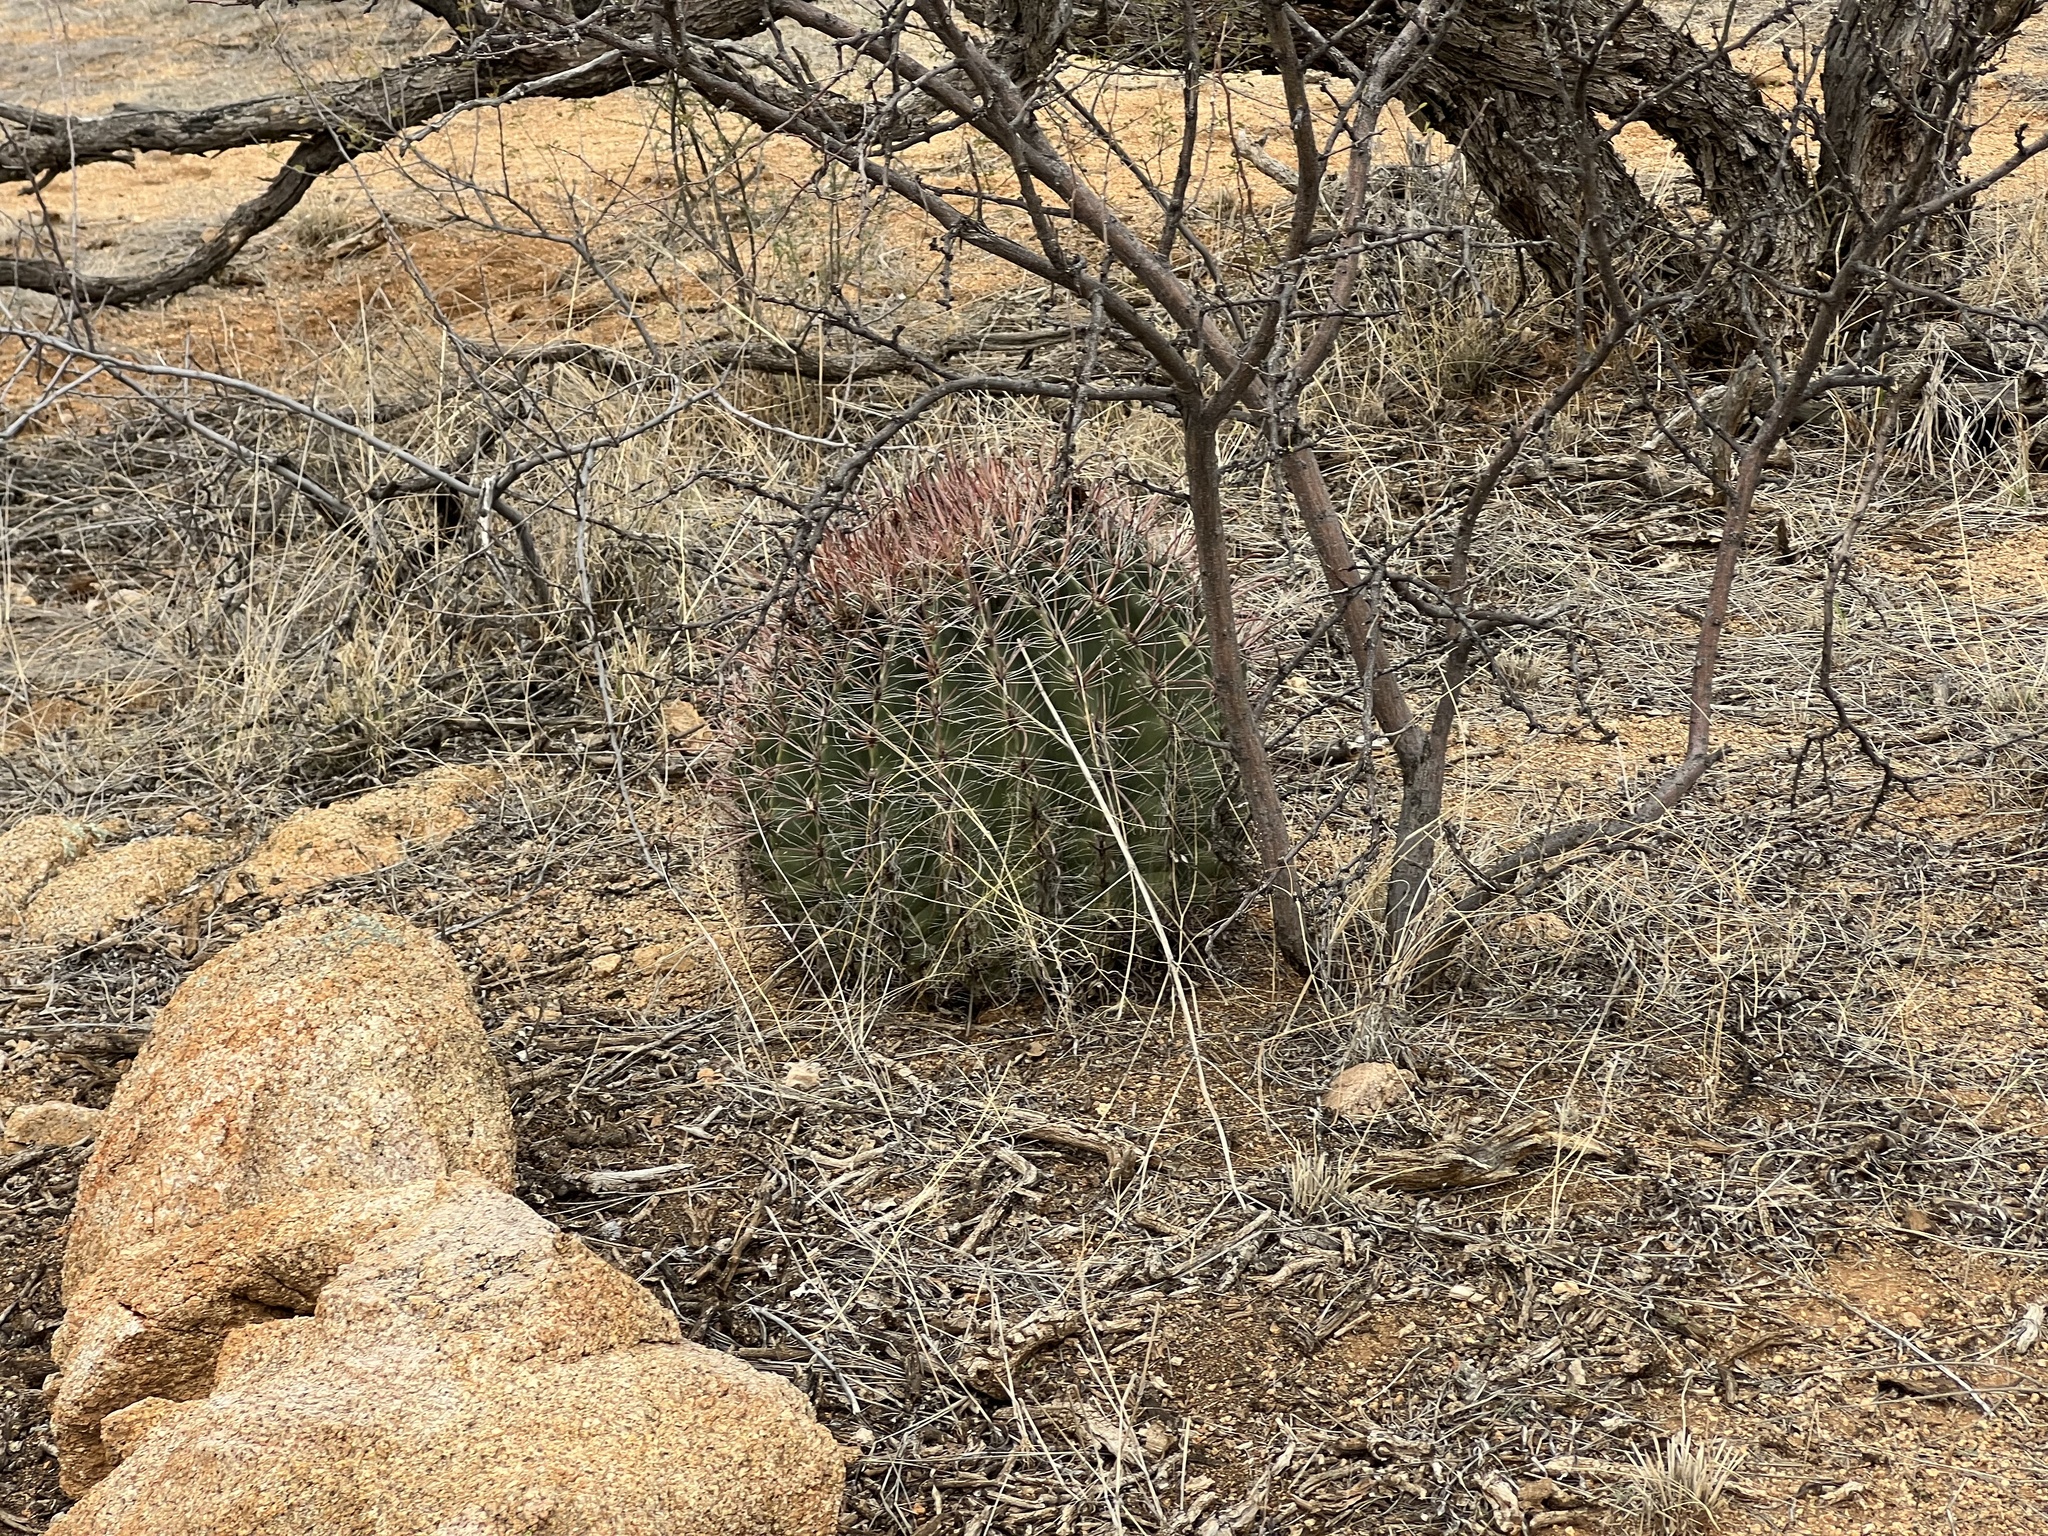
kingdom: Plantae
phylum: Tracheophyta
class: Magnoliopsida
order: Caryophyllales
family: Cactaceae
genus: Ferocactus
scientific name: Ferocactus wislizeni
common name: Candy barrel cactus
